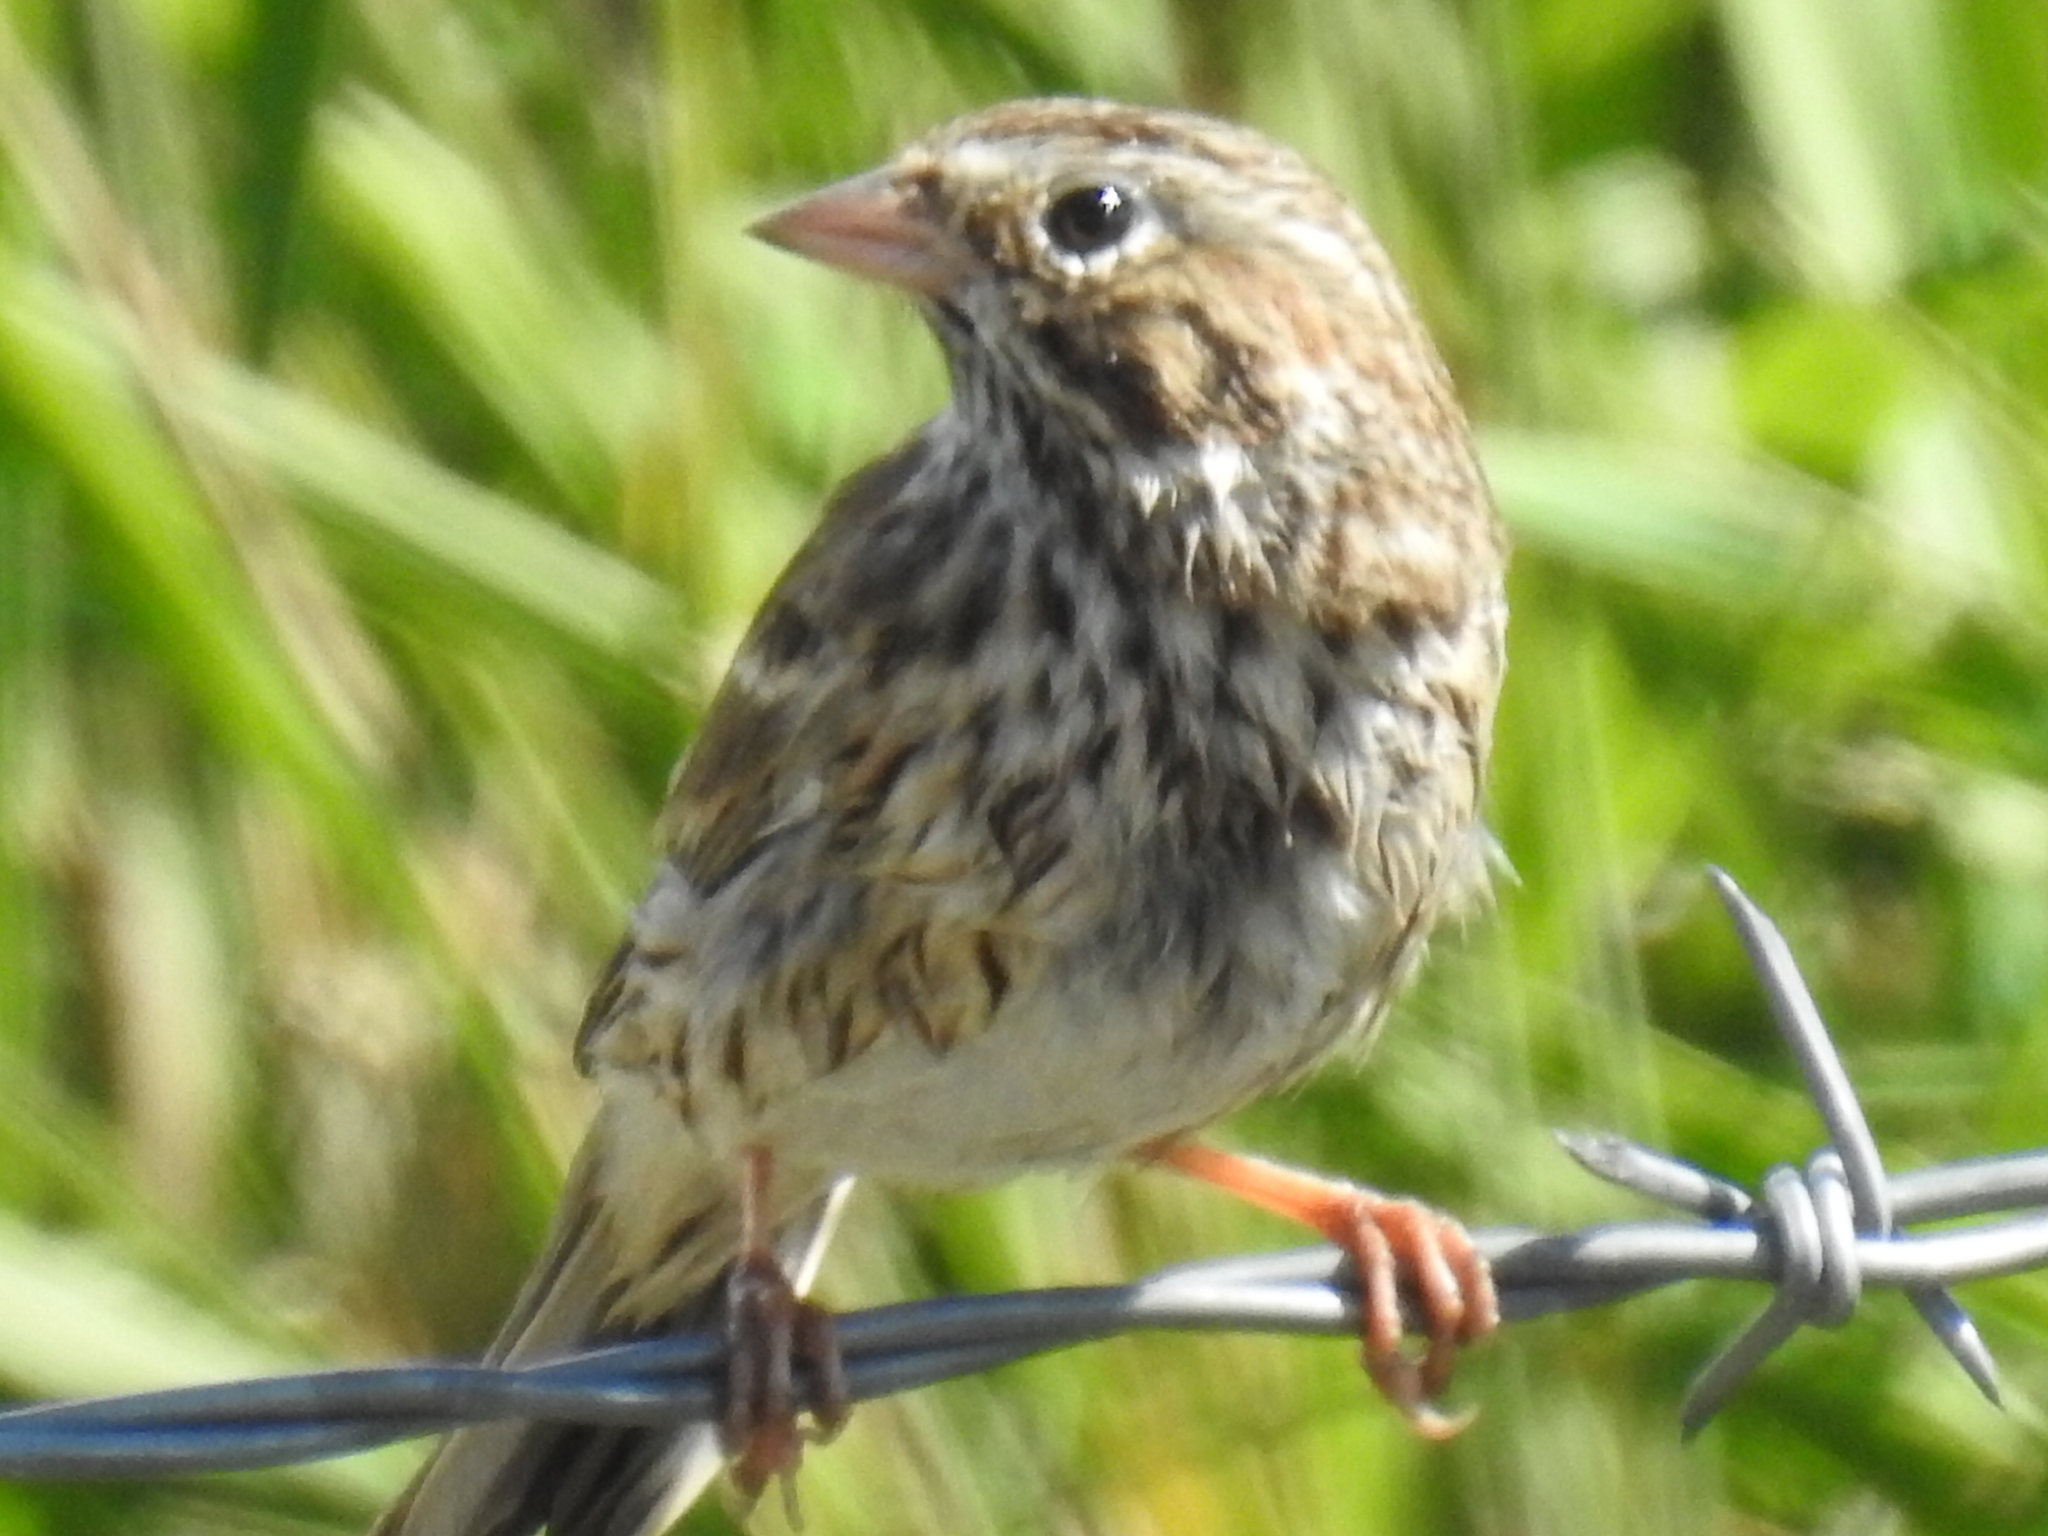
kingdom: Animalia
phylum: Chordata
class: Aves
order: Passeriformes
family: Passerellidae
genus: Pooecetes
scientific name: Pooecetes gramineus
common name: Vesper sparrow
